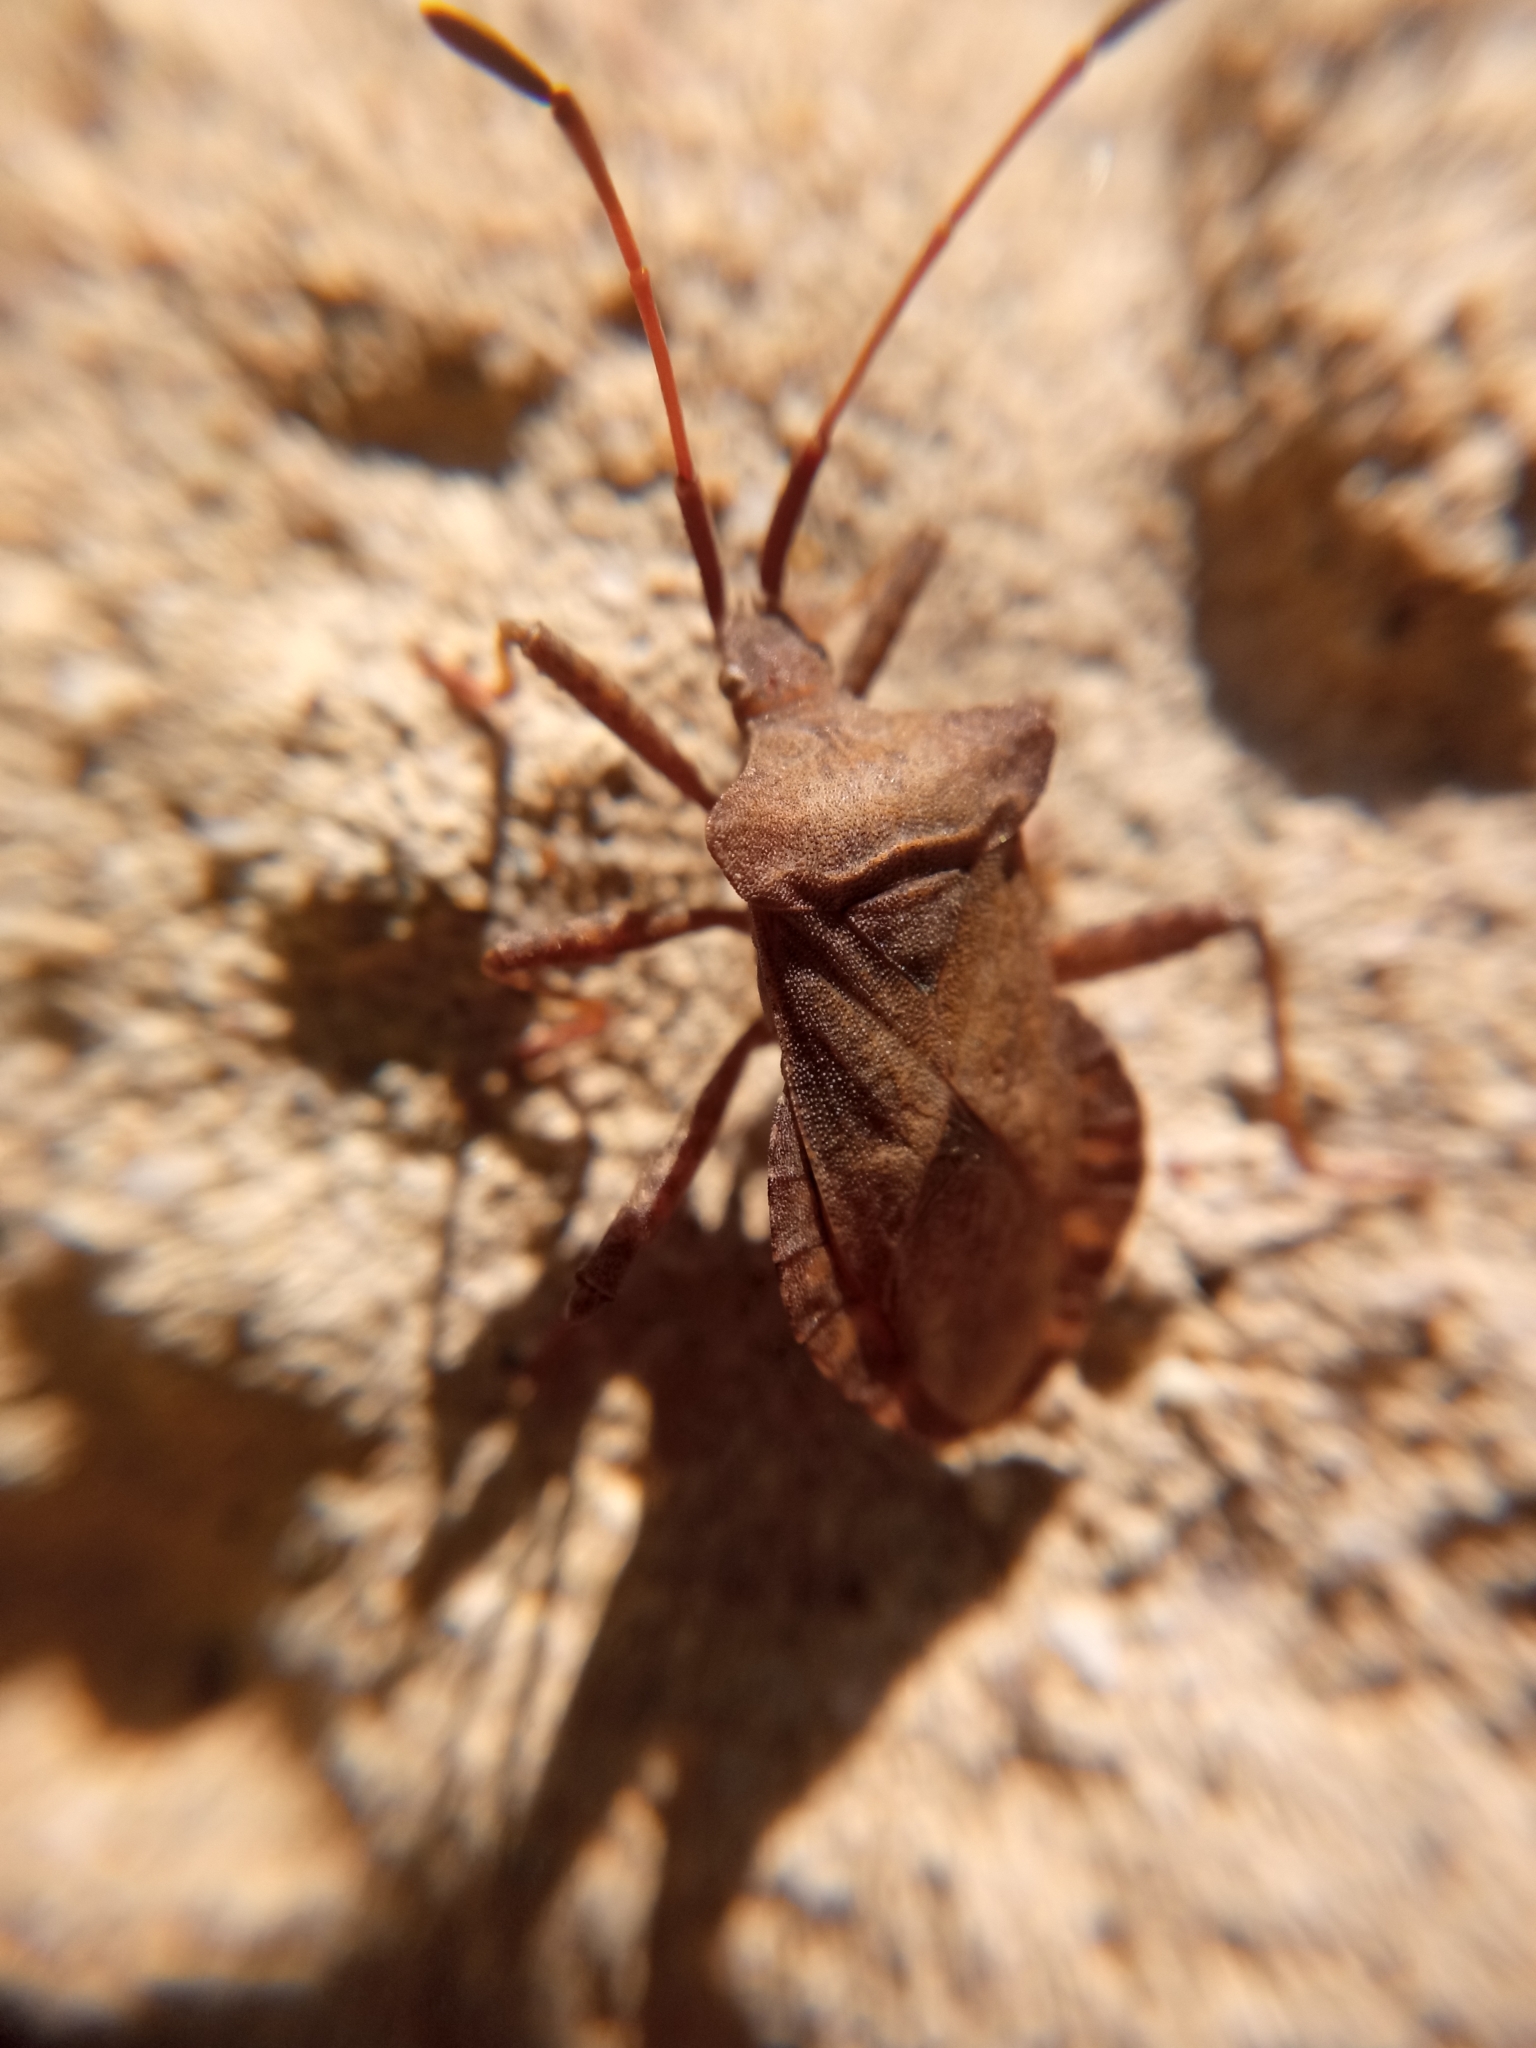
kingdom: Animalia
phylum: Arthropoda
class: Insecta
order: Hemiptera
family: Coreidae
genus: Coreus
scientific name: Coreus marginatus
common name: Dock bug
